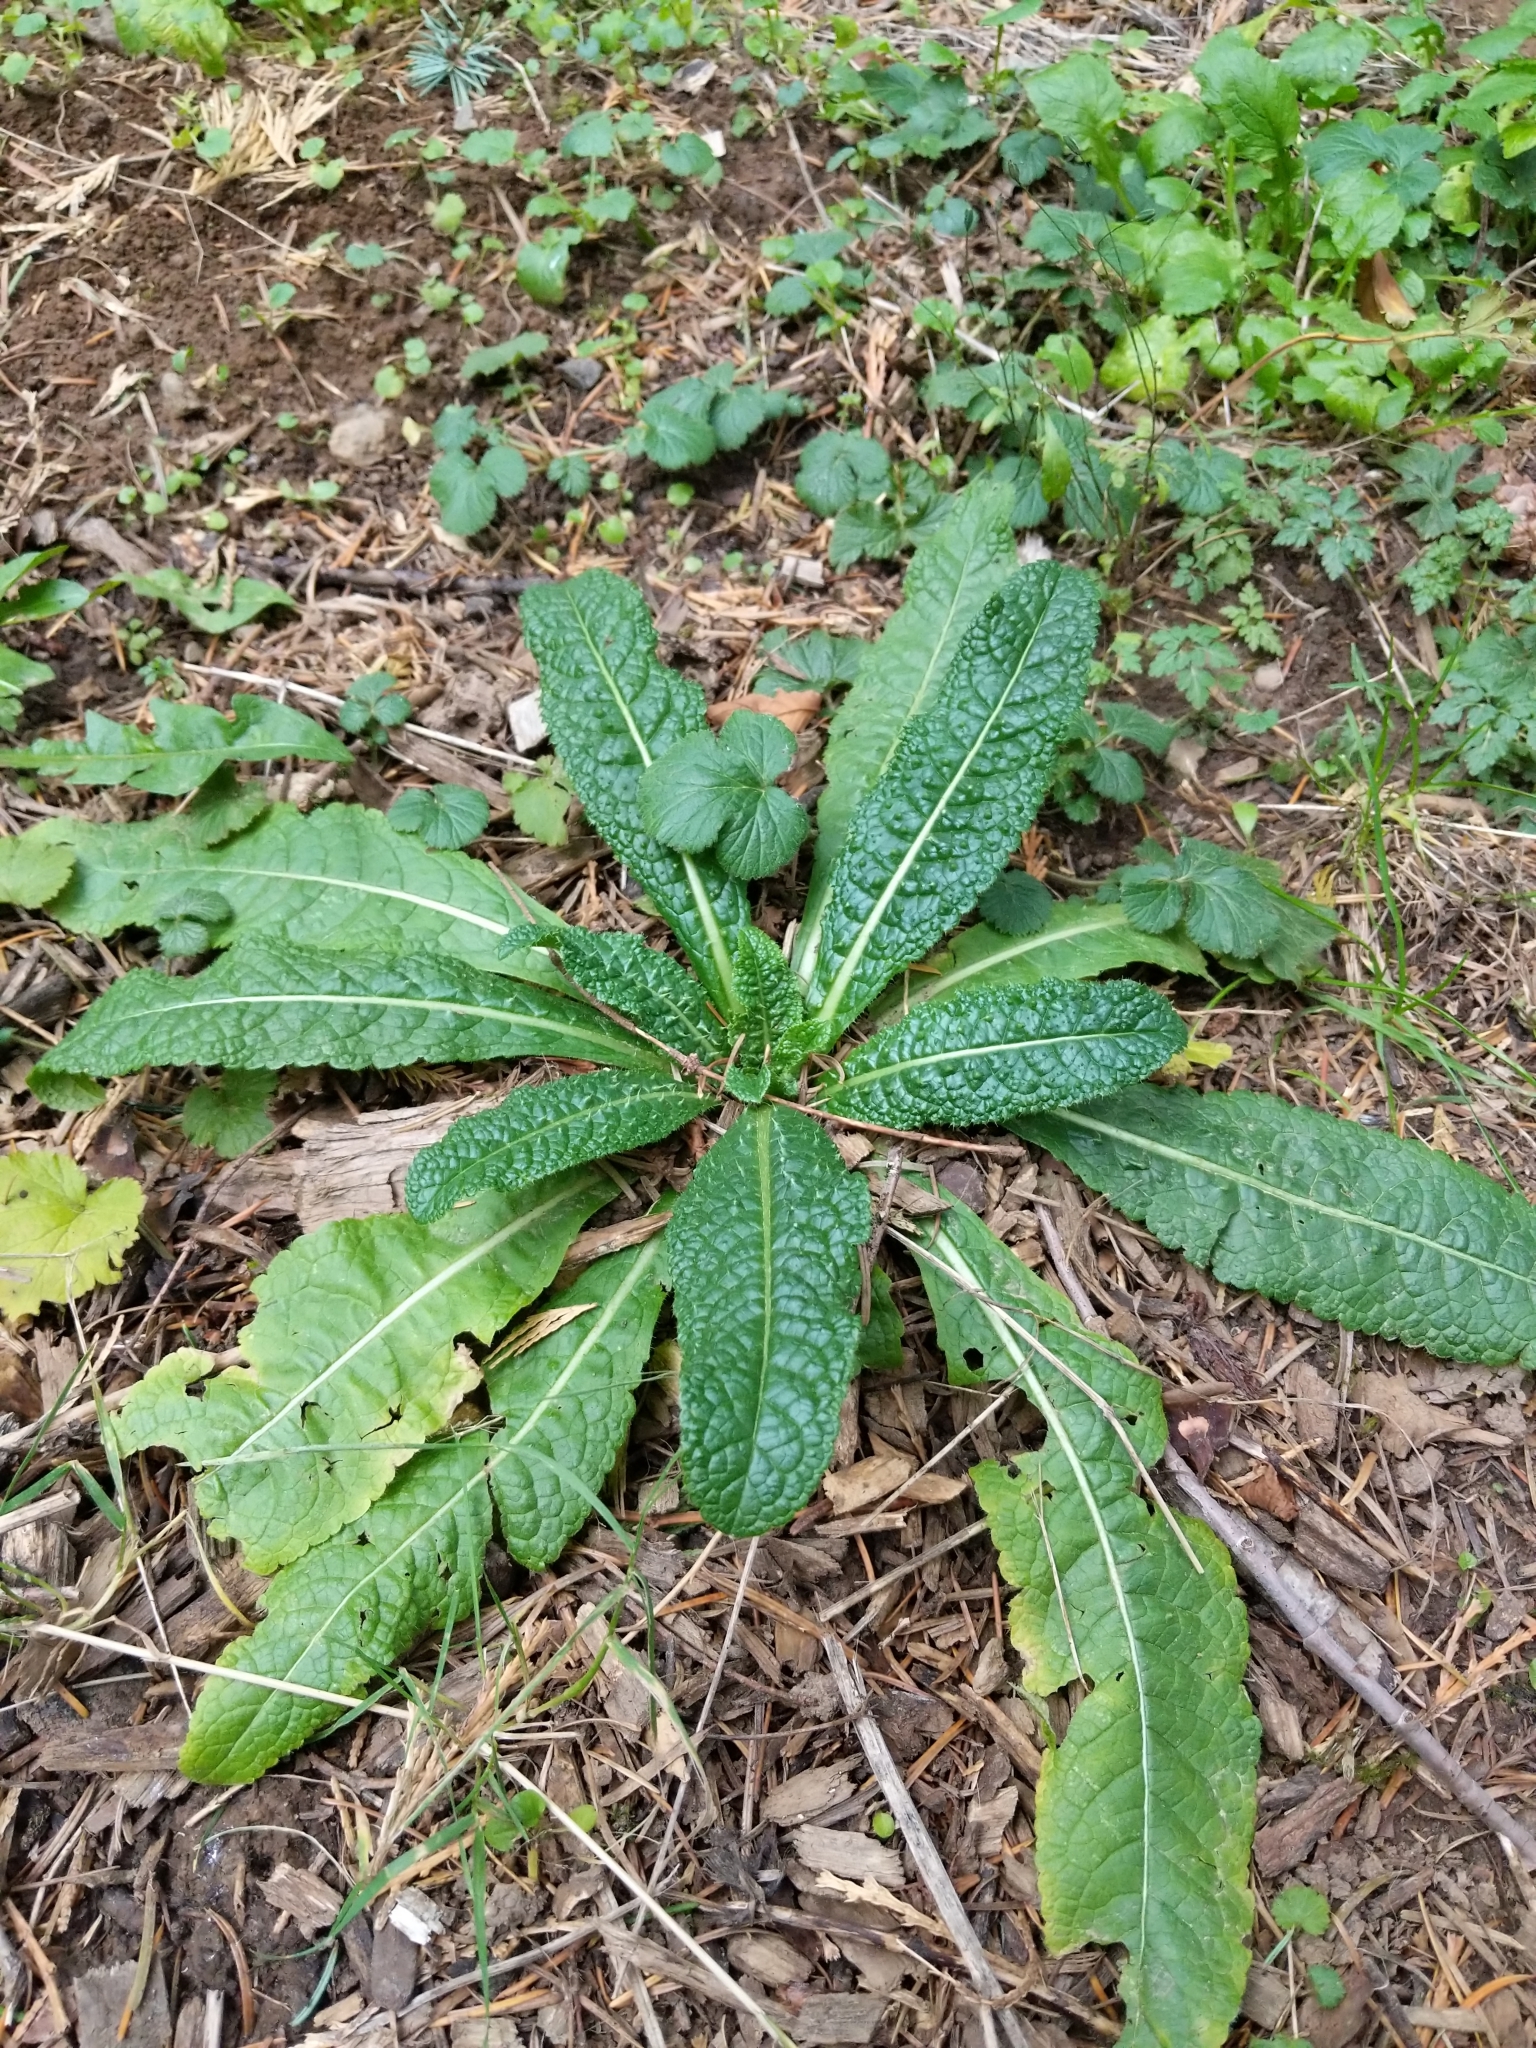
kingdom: Plantae
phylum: Tracheophyta
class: Magnoliopsida
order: Dipsacales
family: Caprifoliaceae
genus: Dipsacus
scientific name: Dipsacus fullonum
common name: Teasel
